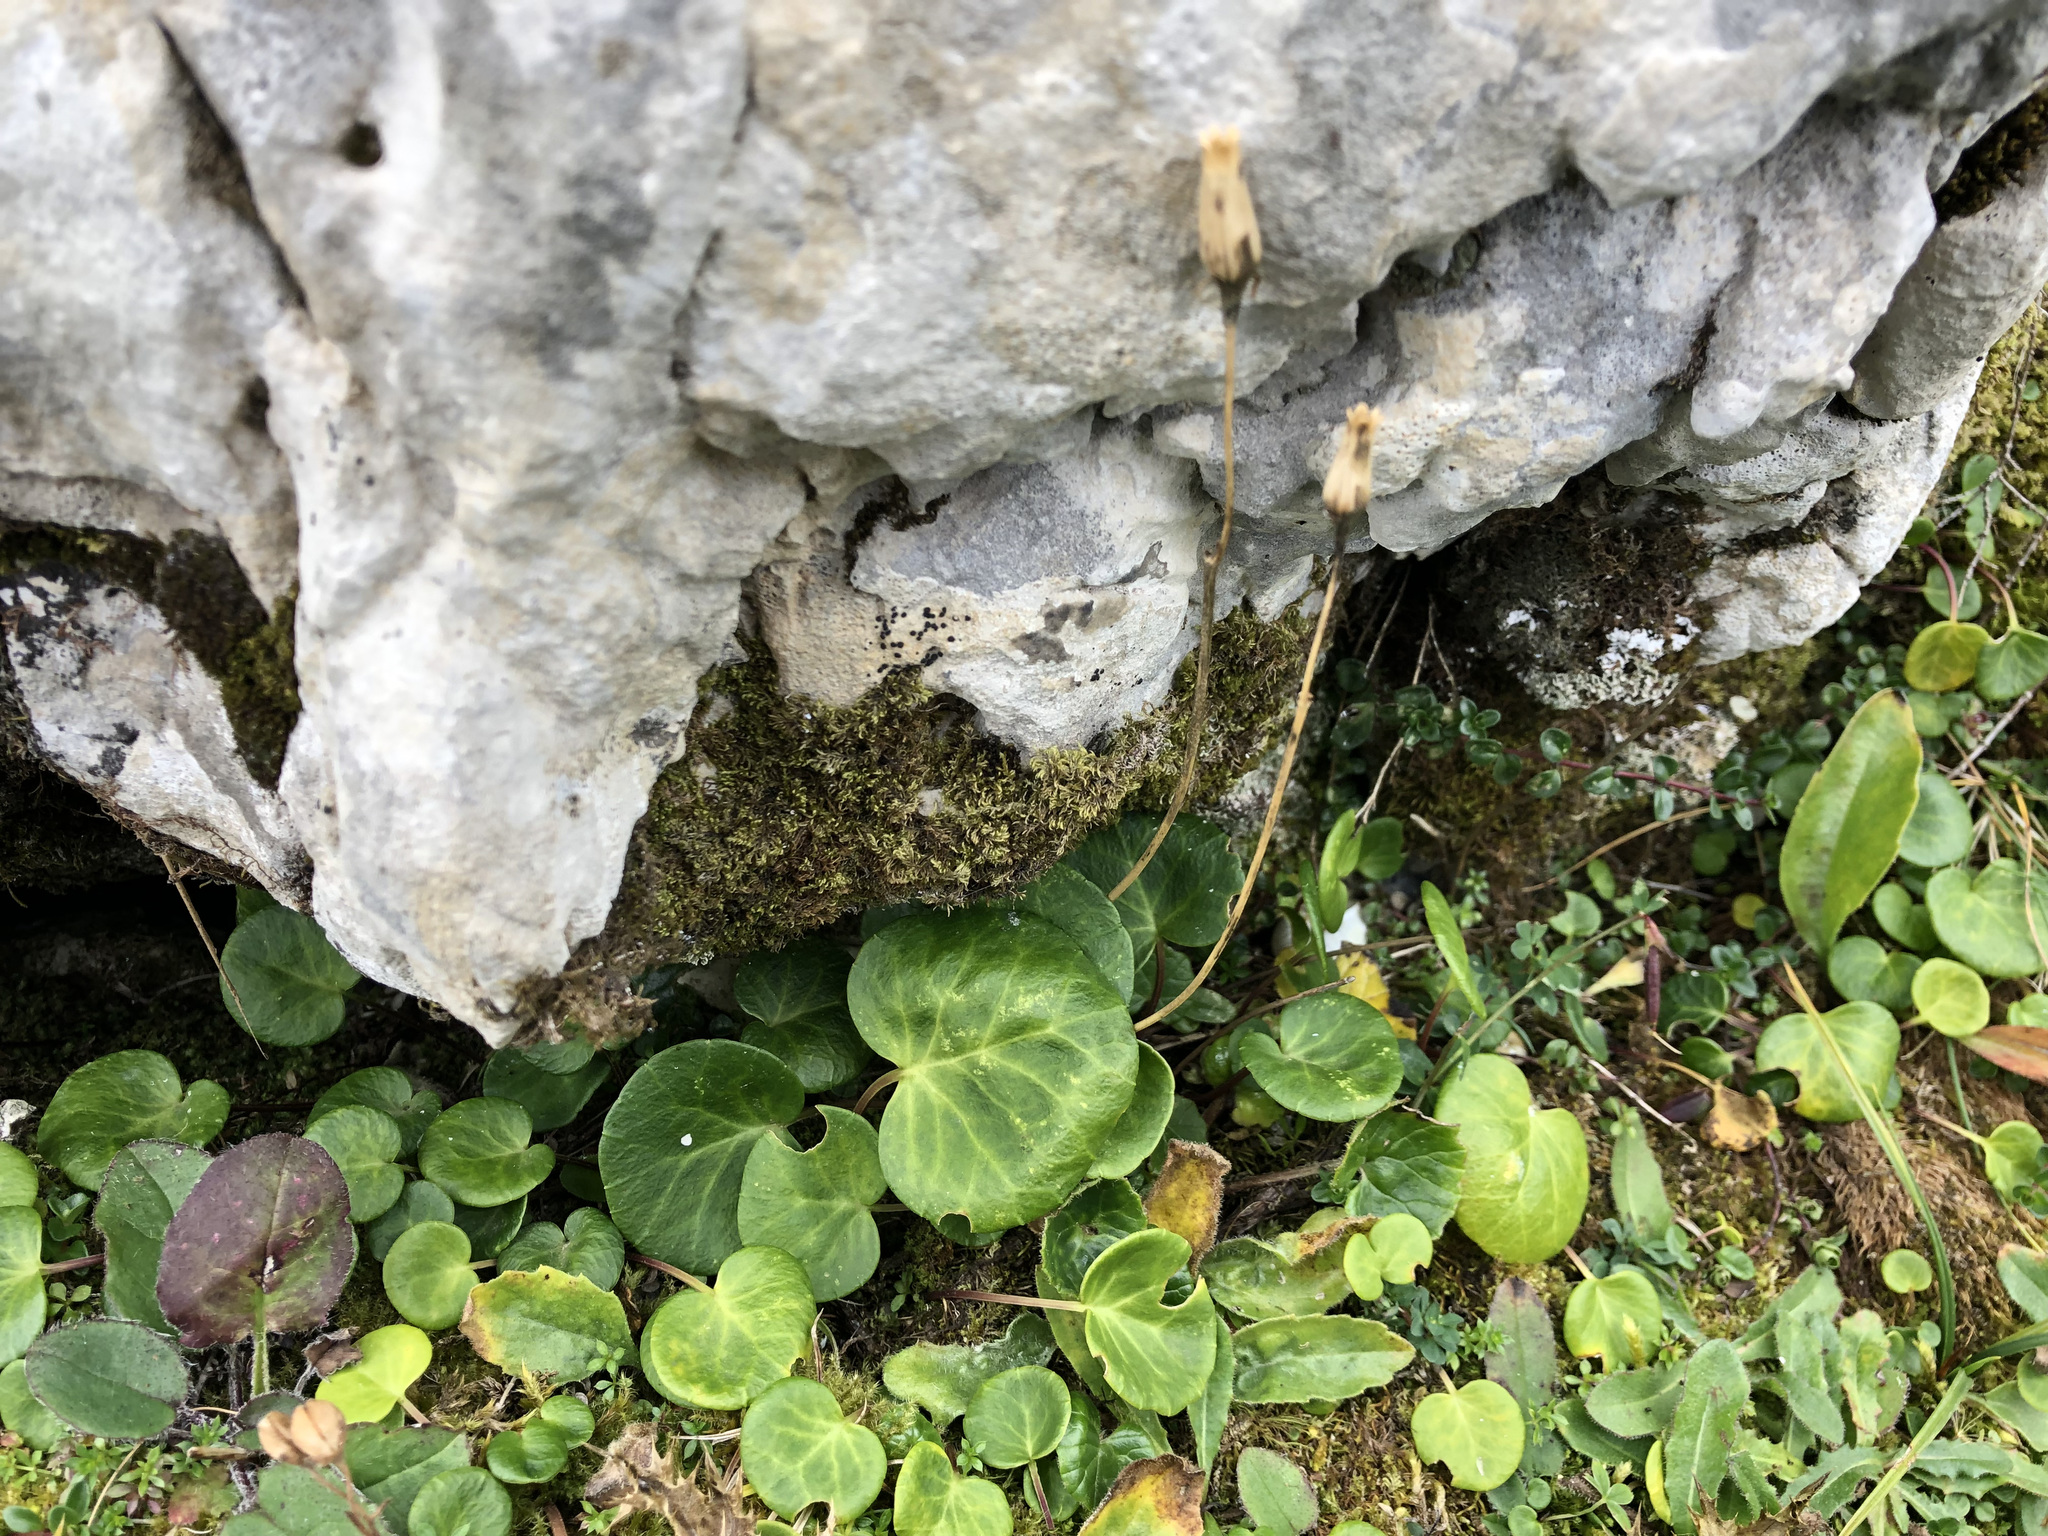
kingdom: Plantae
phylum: Tracheophyta
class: Magnoliopsida
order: Ericales
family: Primulaceae
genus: Soldanella
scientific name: Soldanella alpina
